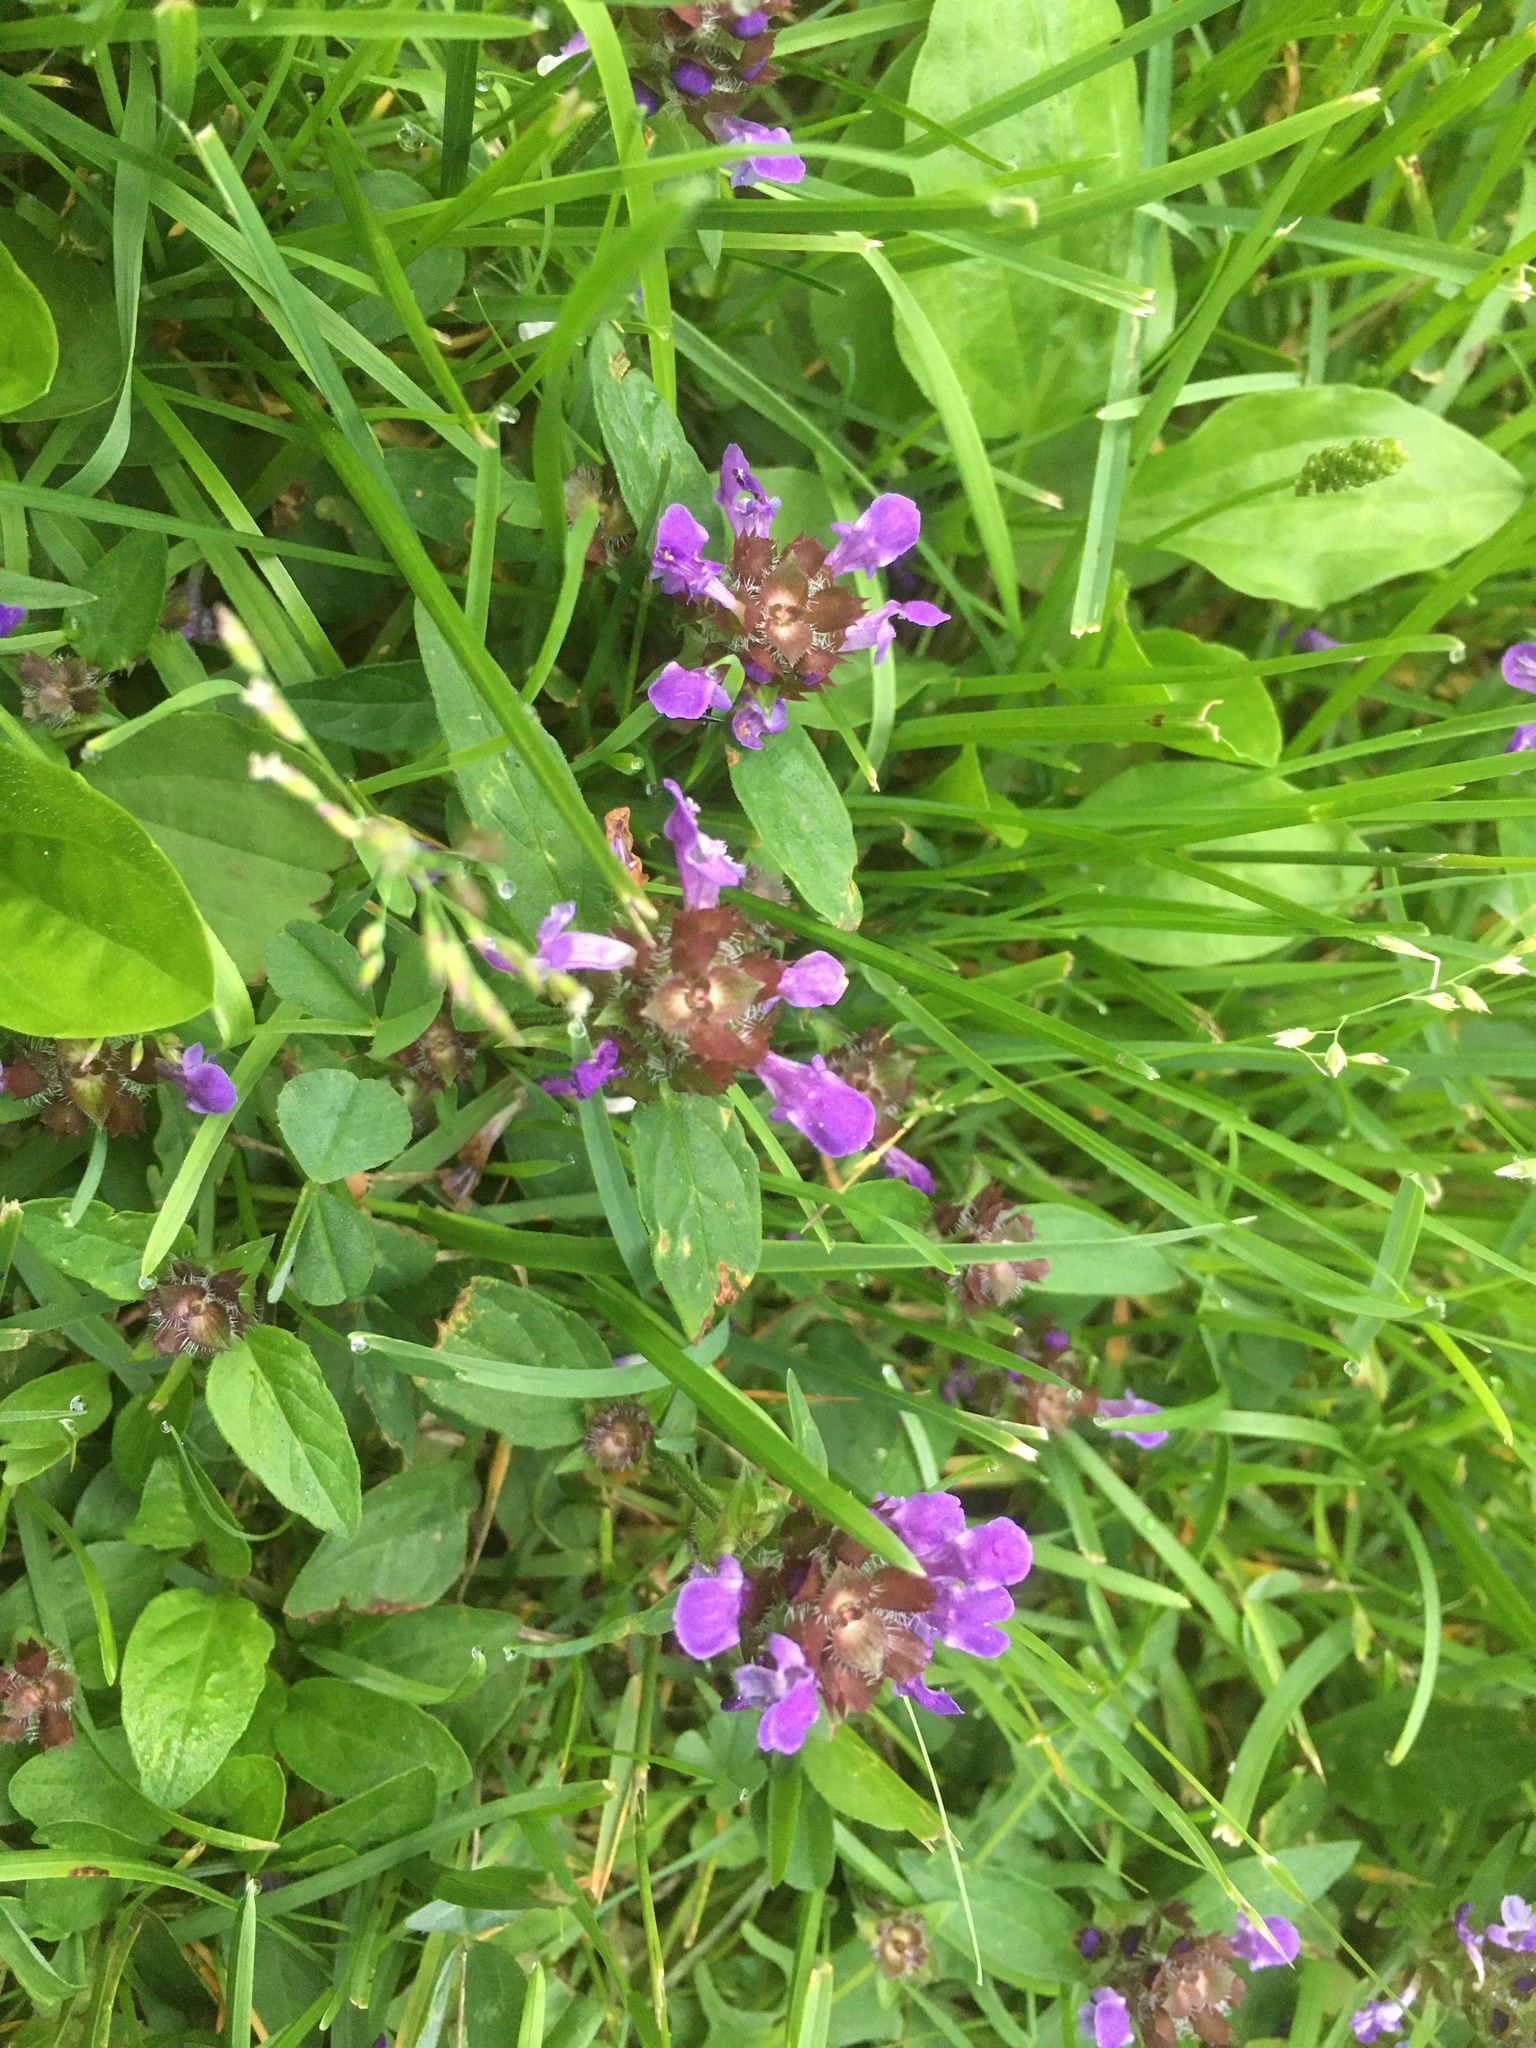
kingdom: Plantae
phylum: Tracheophyta
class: Magnoliopsida
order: Lamiales
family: Lamiaceae
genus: Prunella
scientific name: Prunella vulgaris
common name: Heal-all
